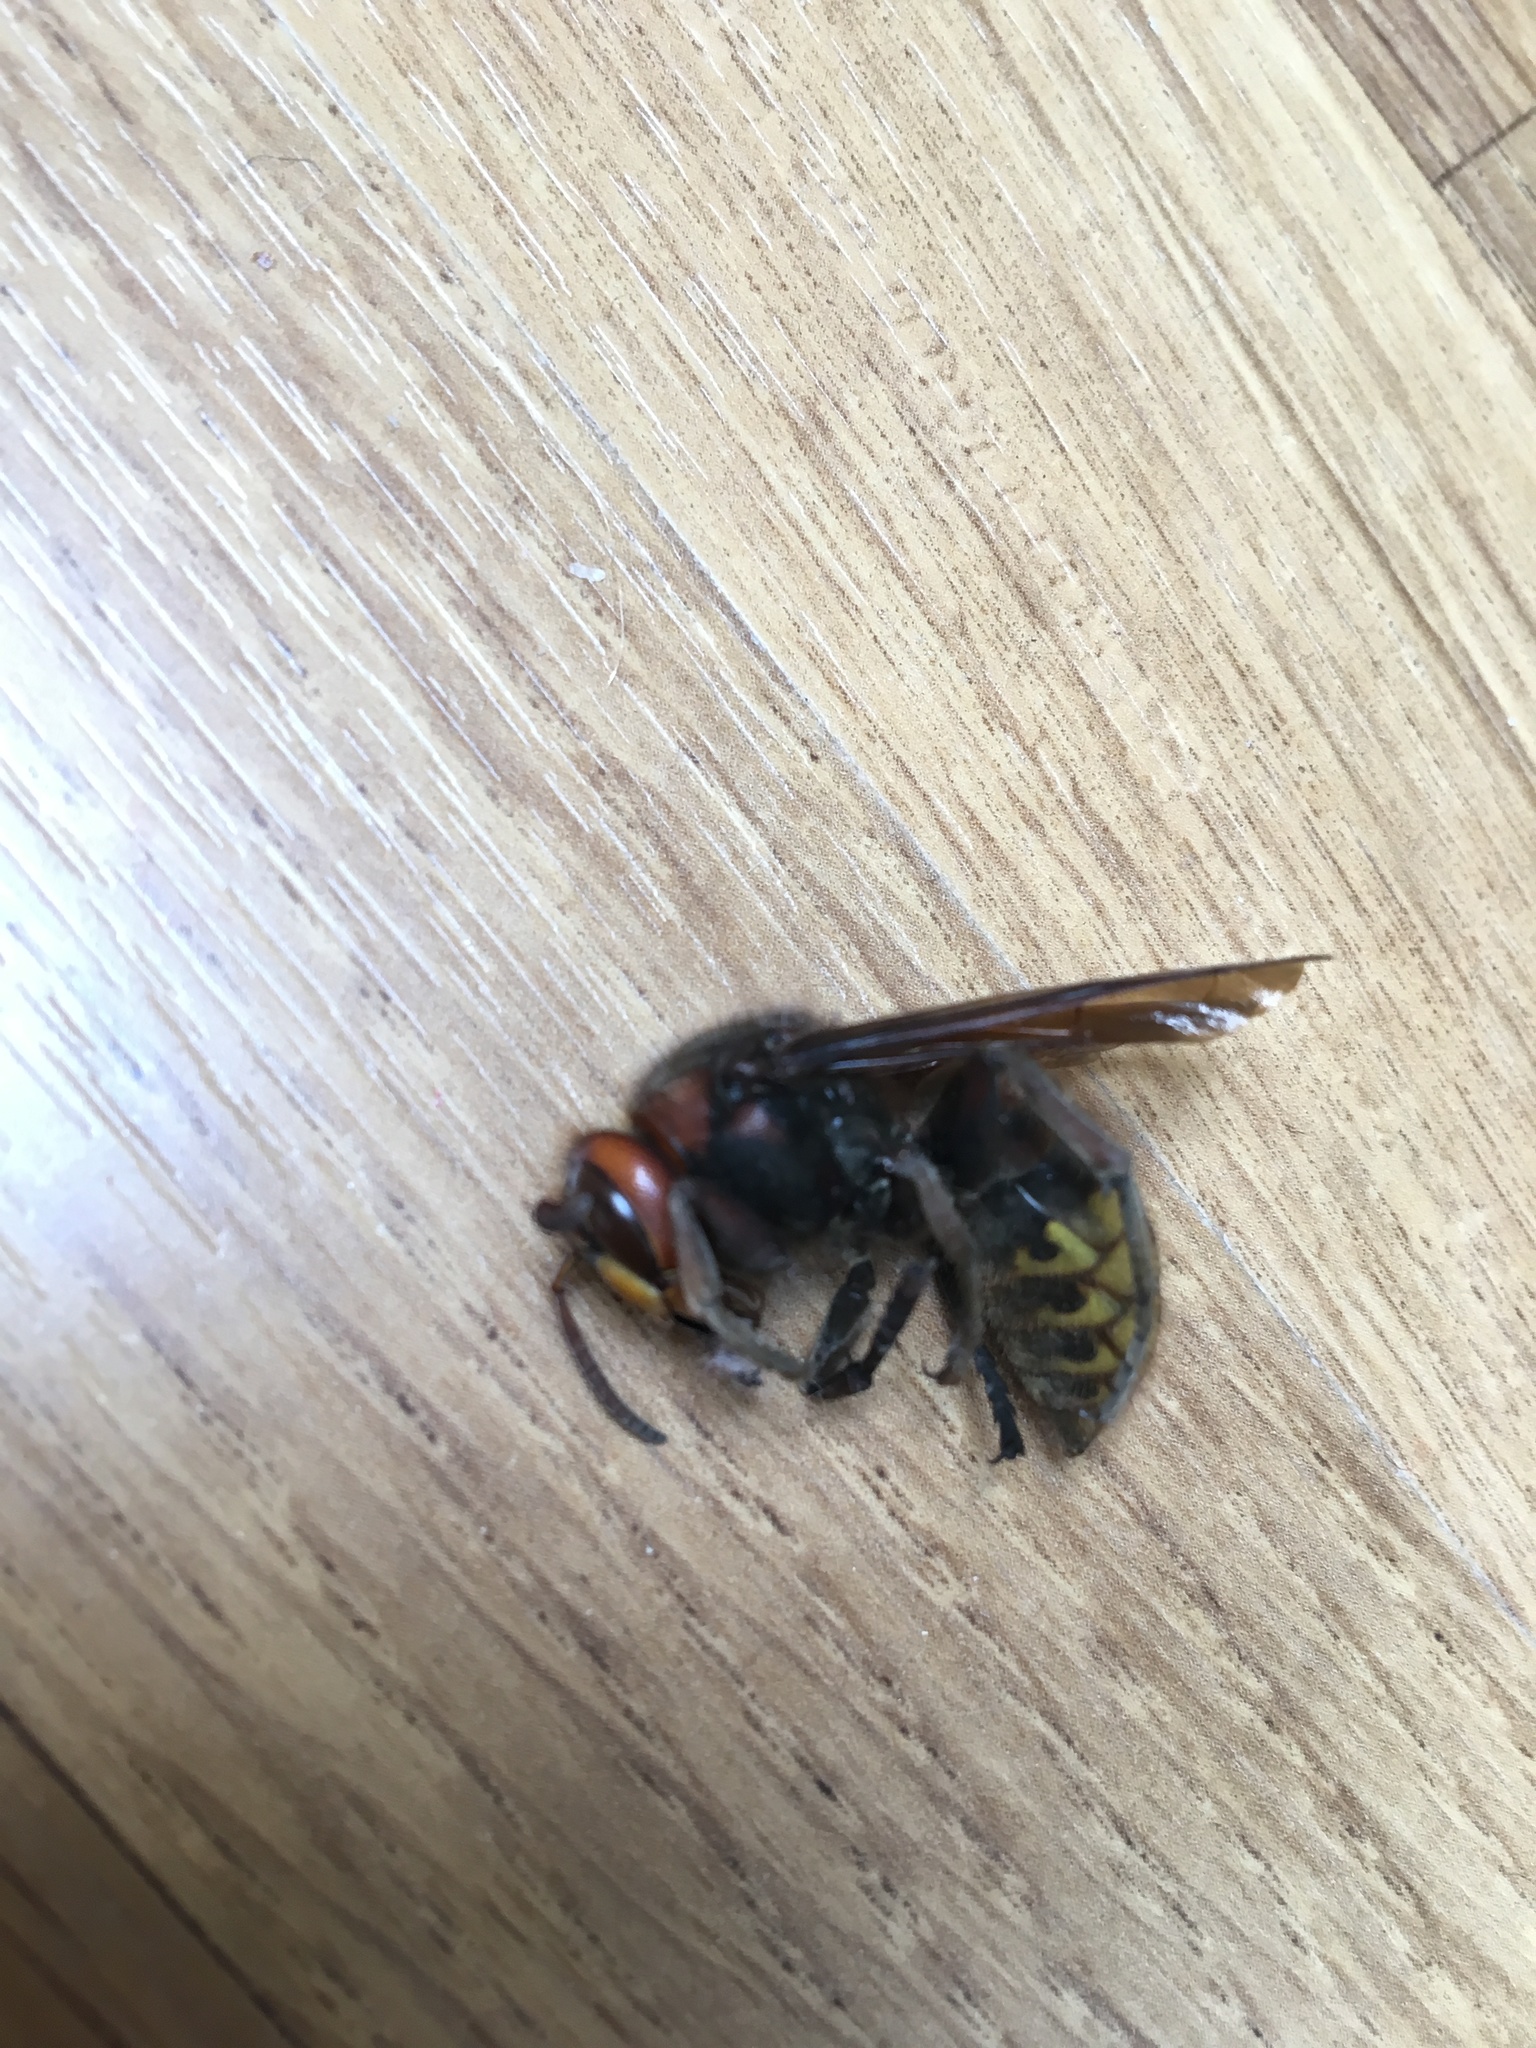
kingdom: Animalia
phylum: Arthropoda
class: Insecta
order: Hymenoptera
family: Vespidae
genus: Vespa
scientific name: Vespa crabro
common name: Hornet
